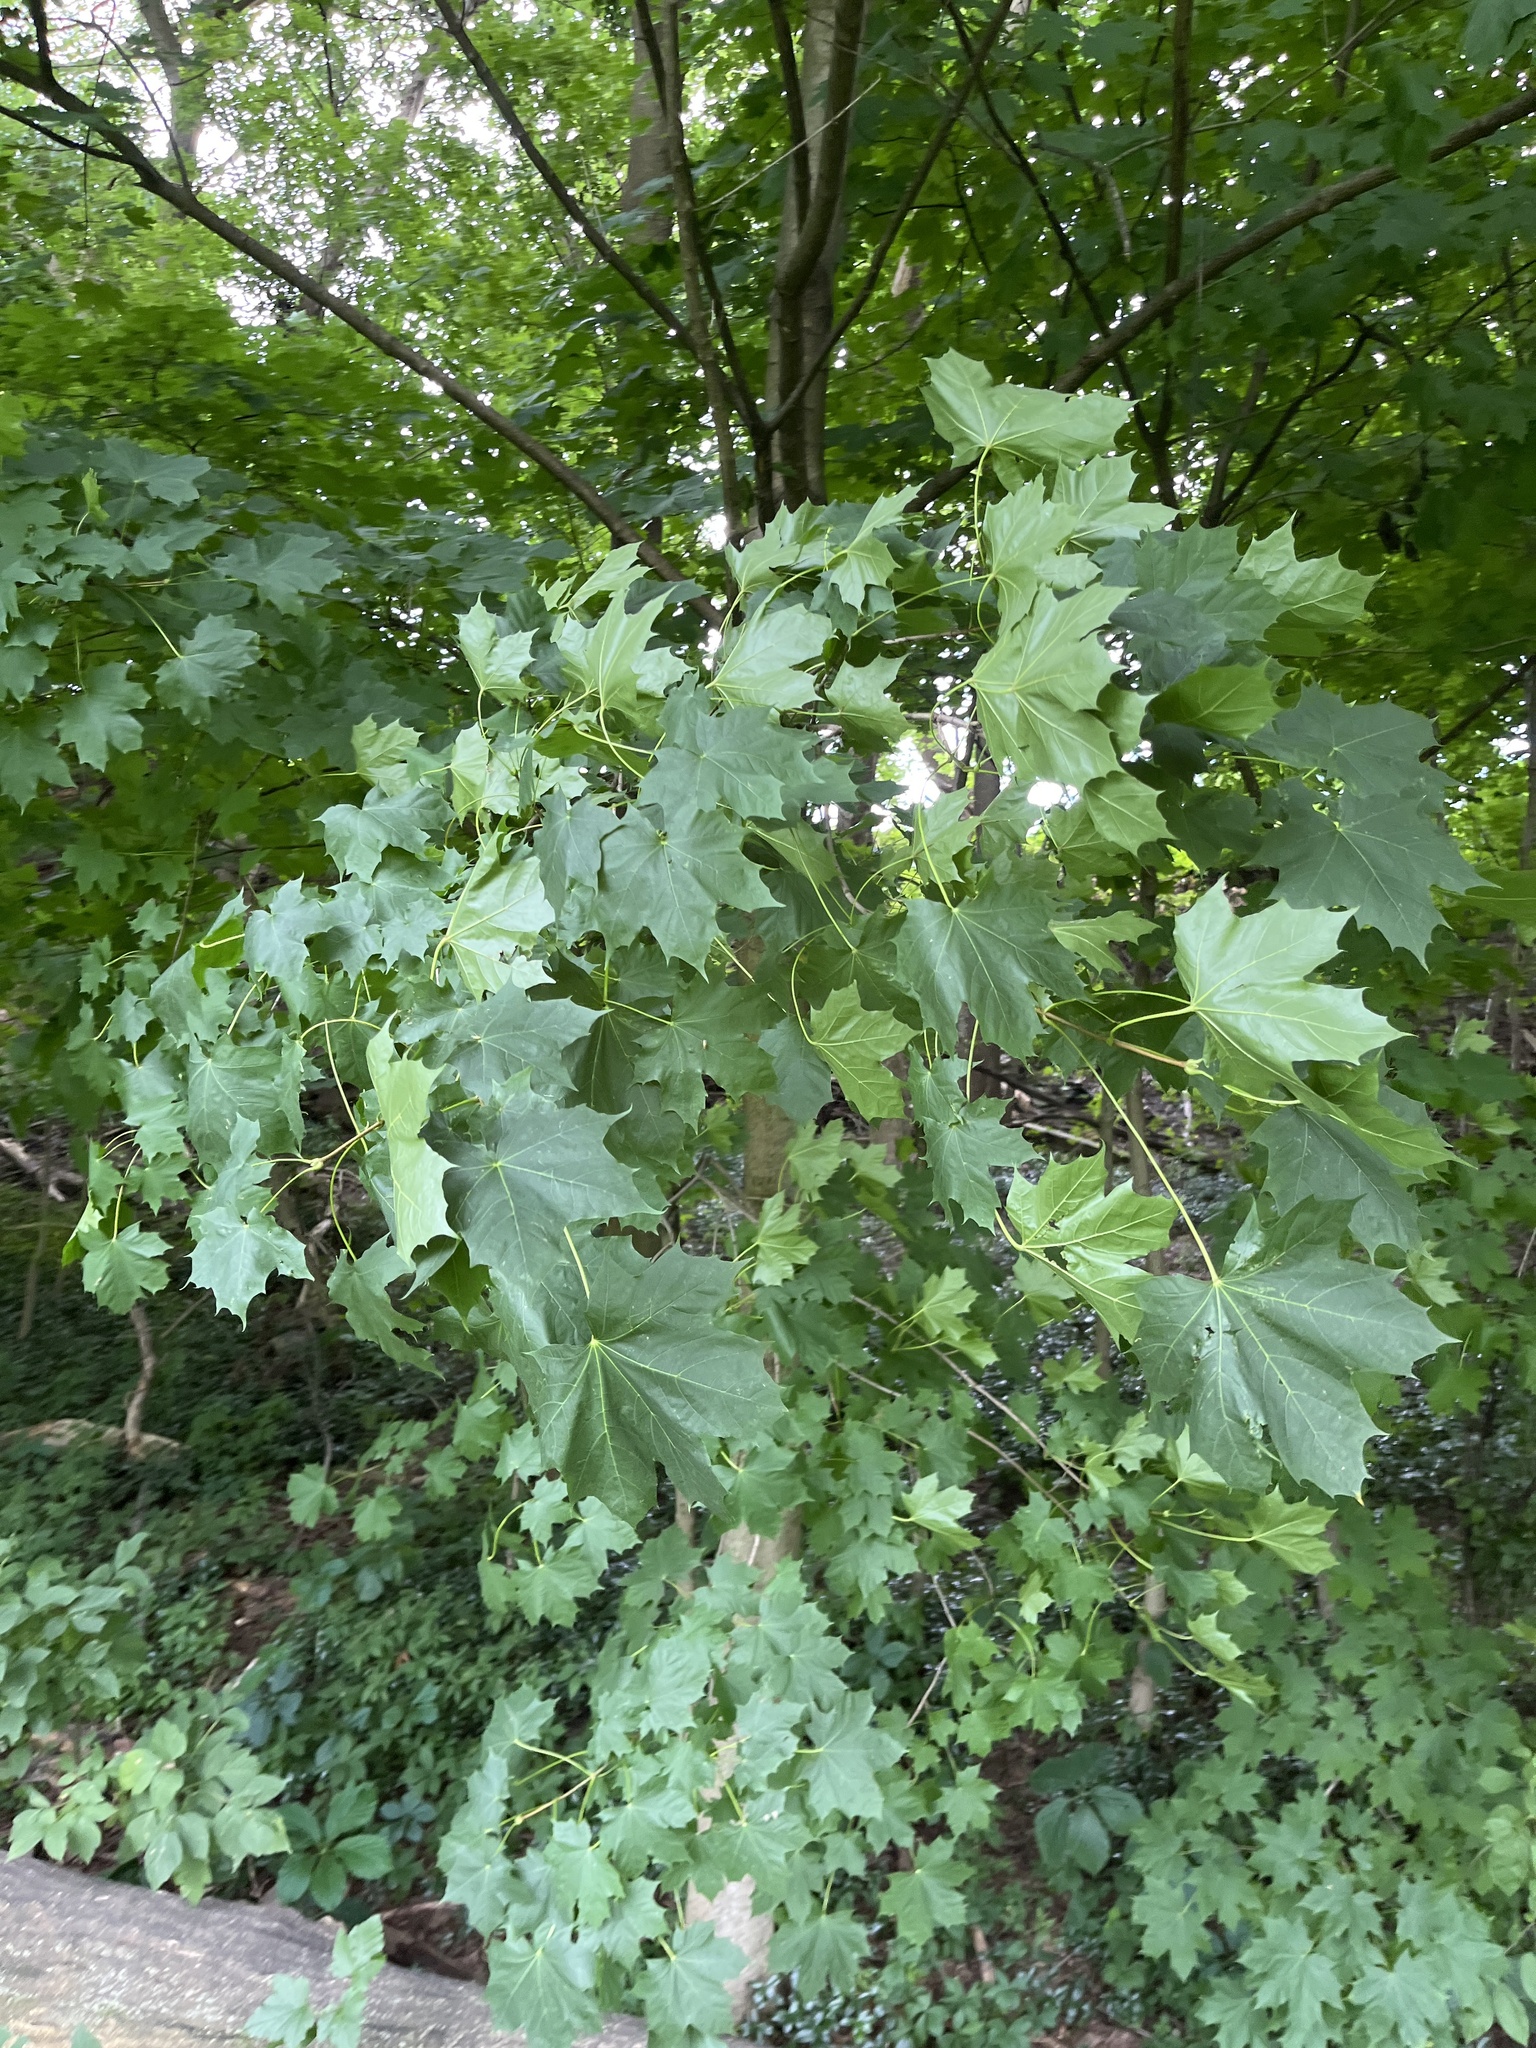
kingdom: Plantae
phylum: Tracheophyta
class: Magnoliopsida
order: Sapindales
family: Sapindaceae
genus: Acer
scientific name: Acer platanoides
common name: Norway maple
